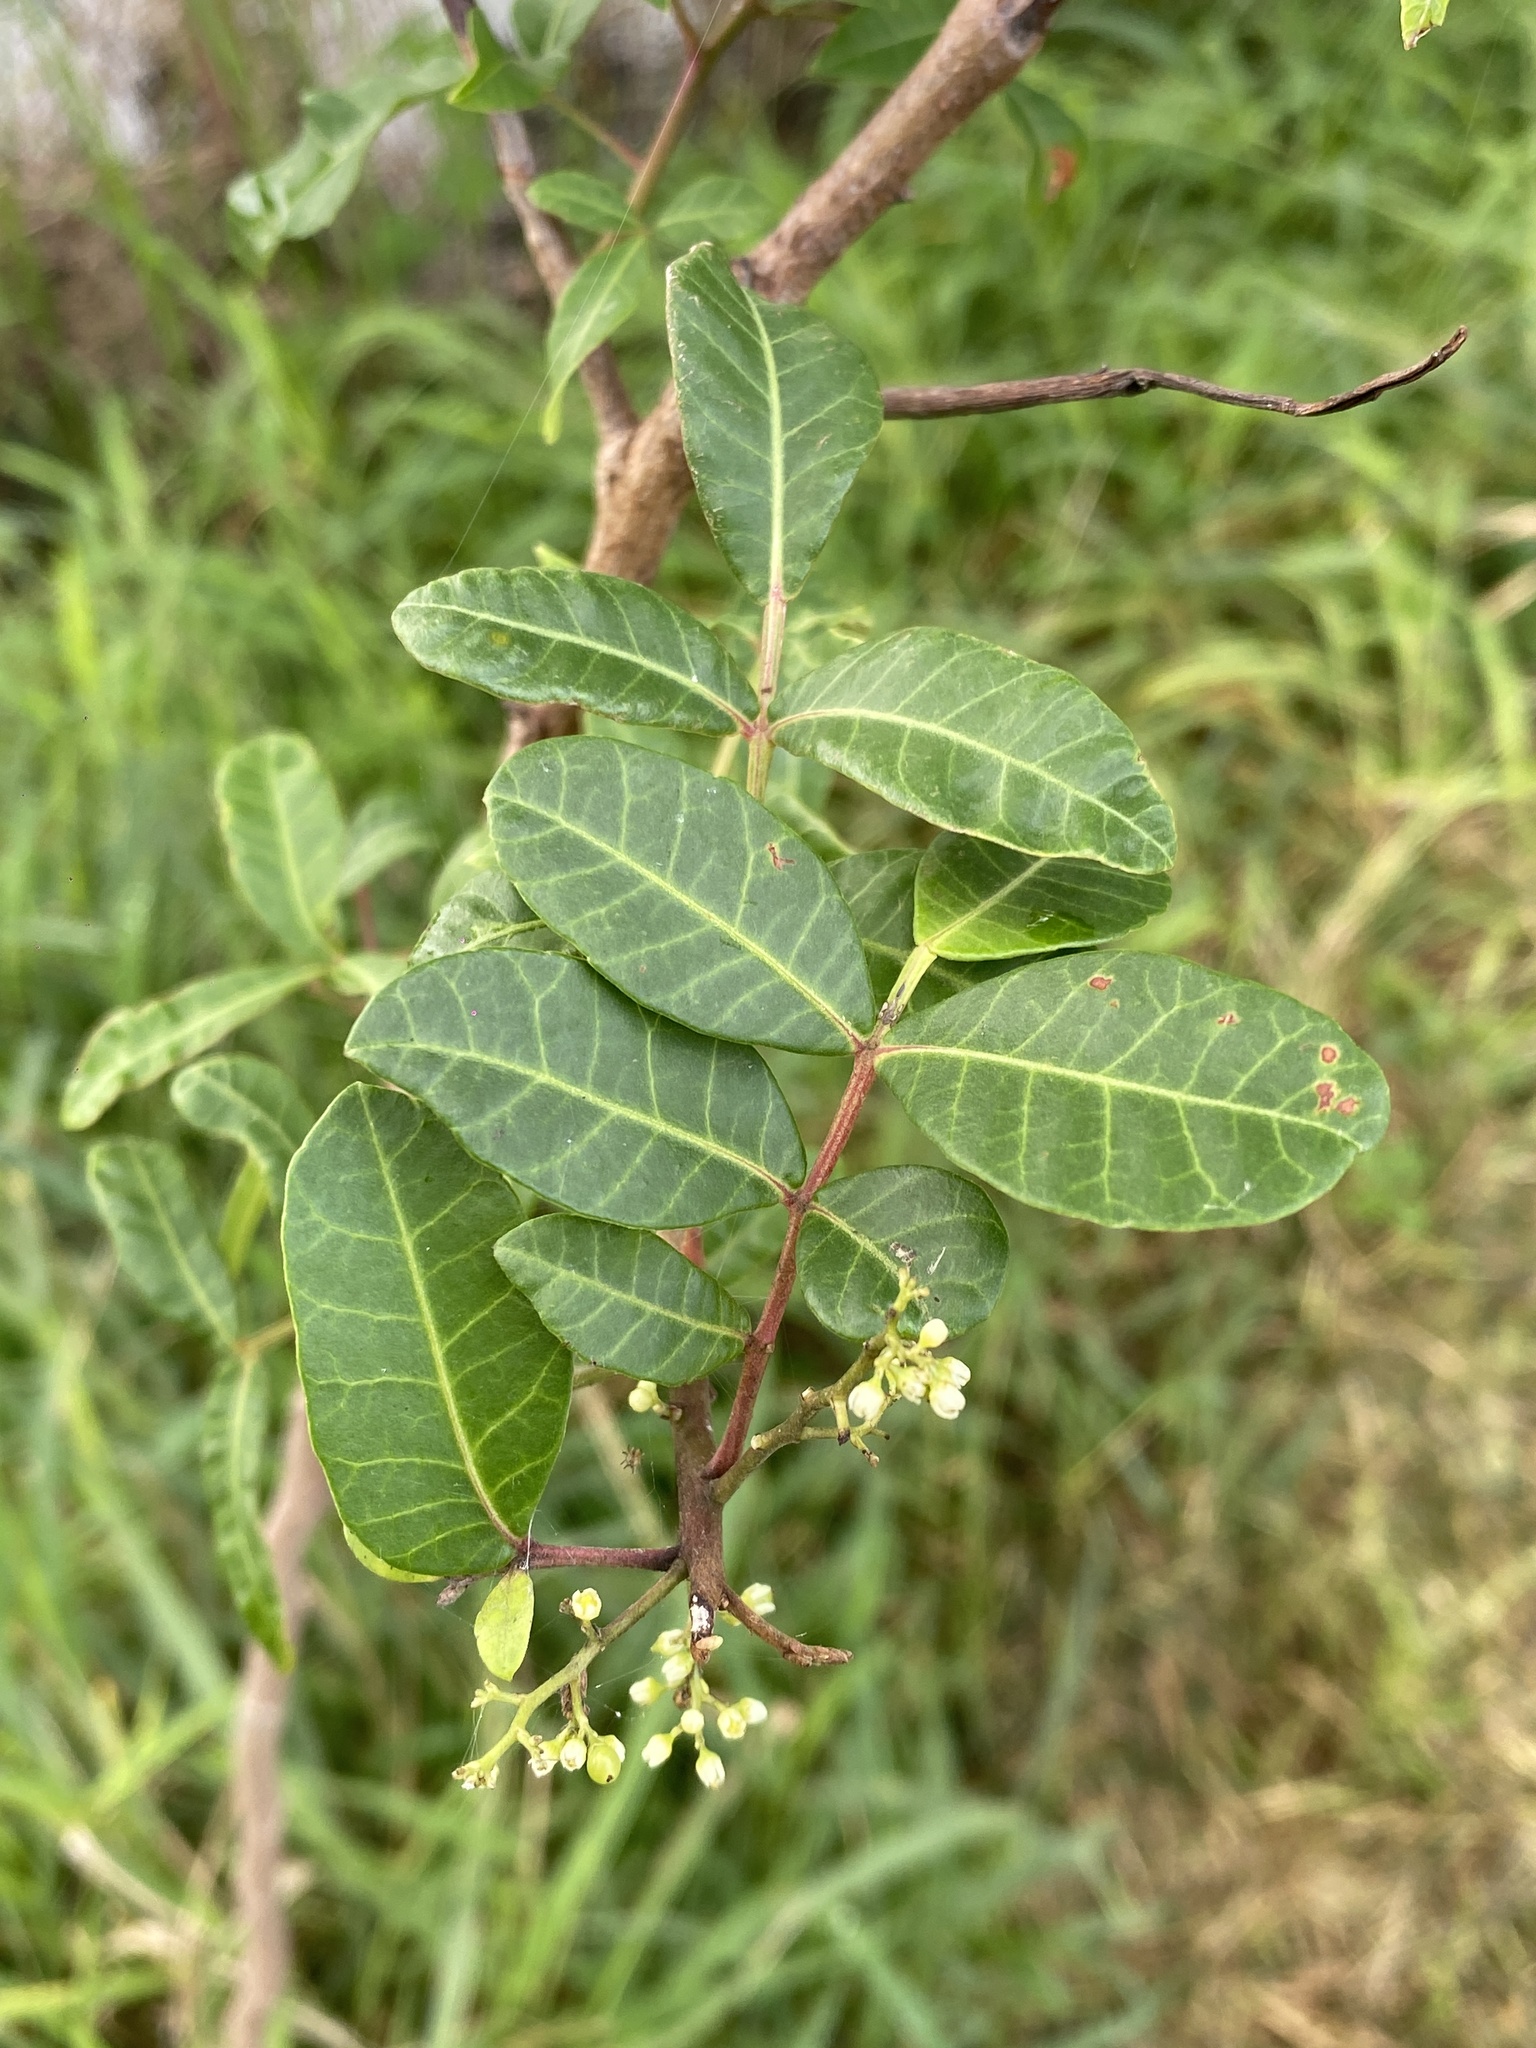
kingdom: Plantae
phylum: Tracheophyta
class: Magnoliopsida
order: Sapindales
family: Anacardiaceae
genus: Schinus
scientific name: Schinus terebinthifolia
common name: Brazilian peppertree
